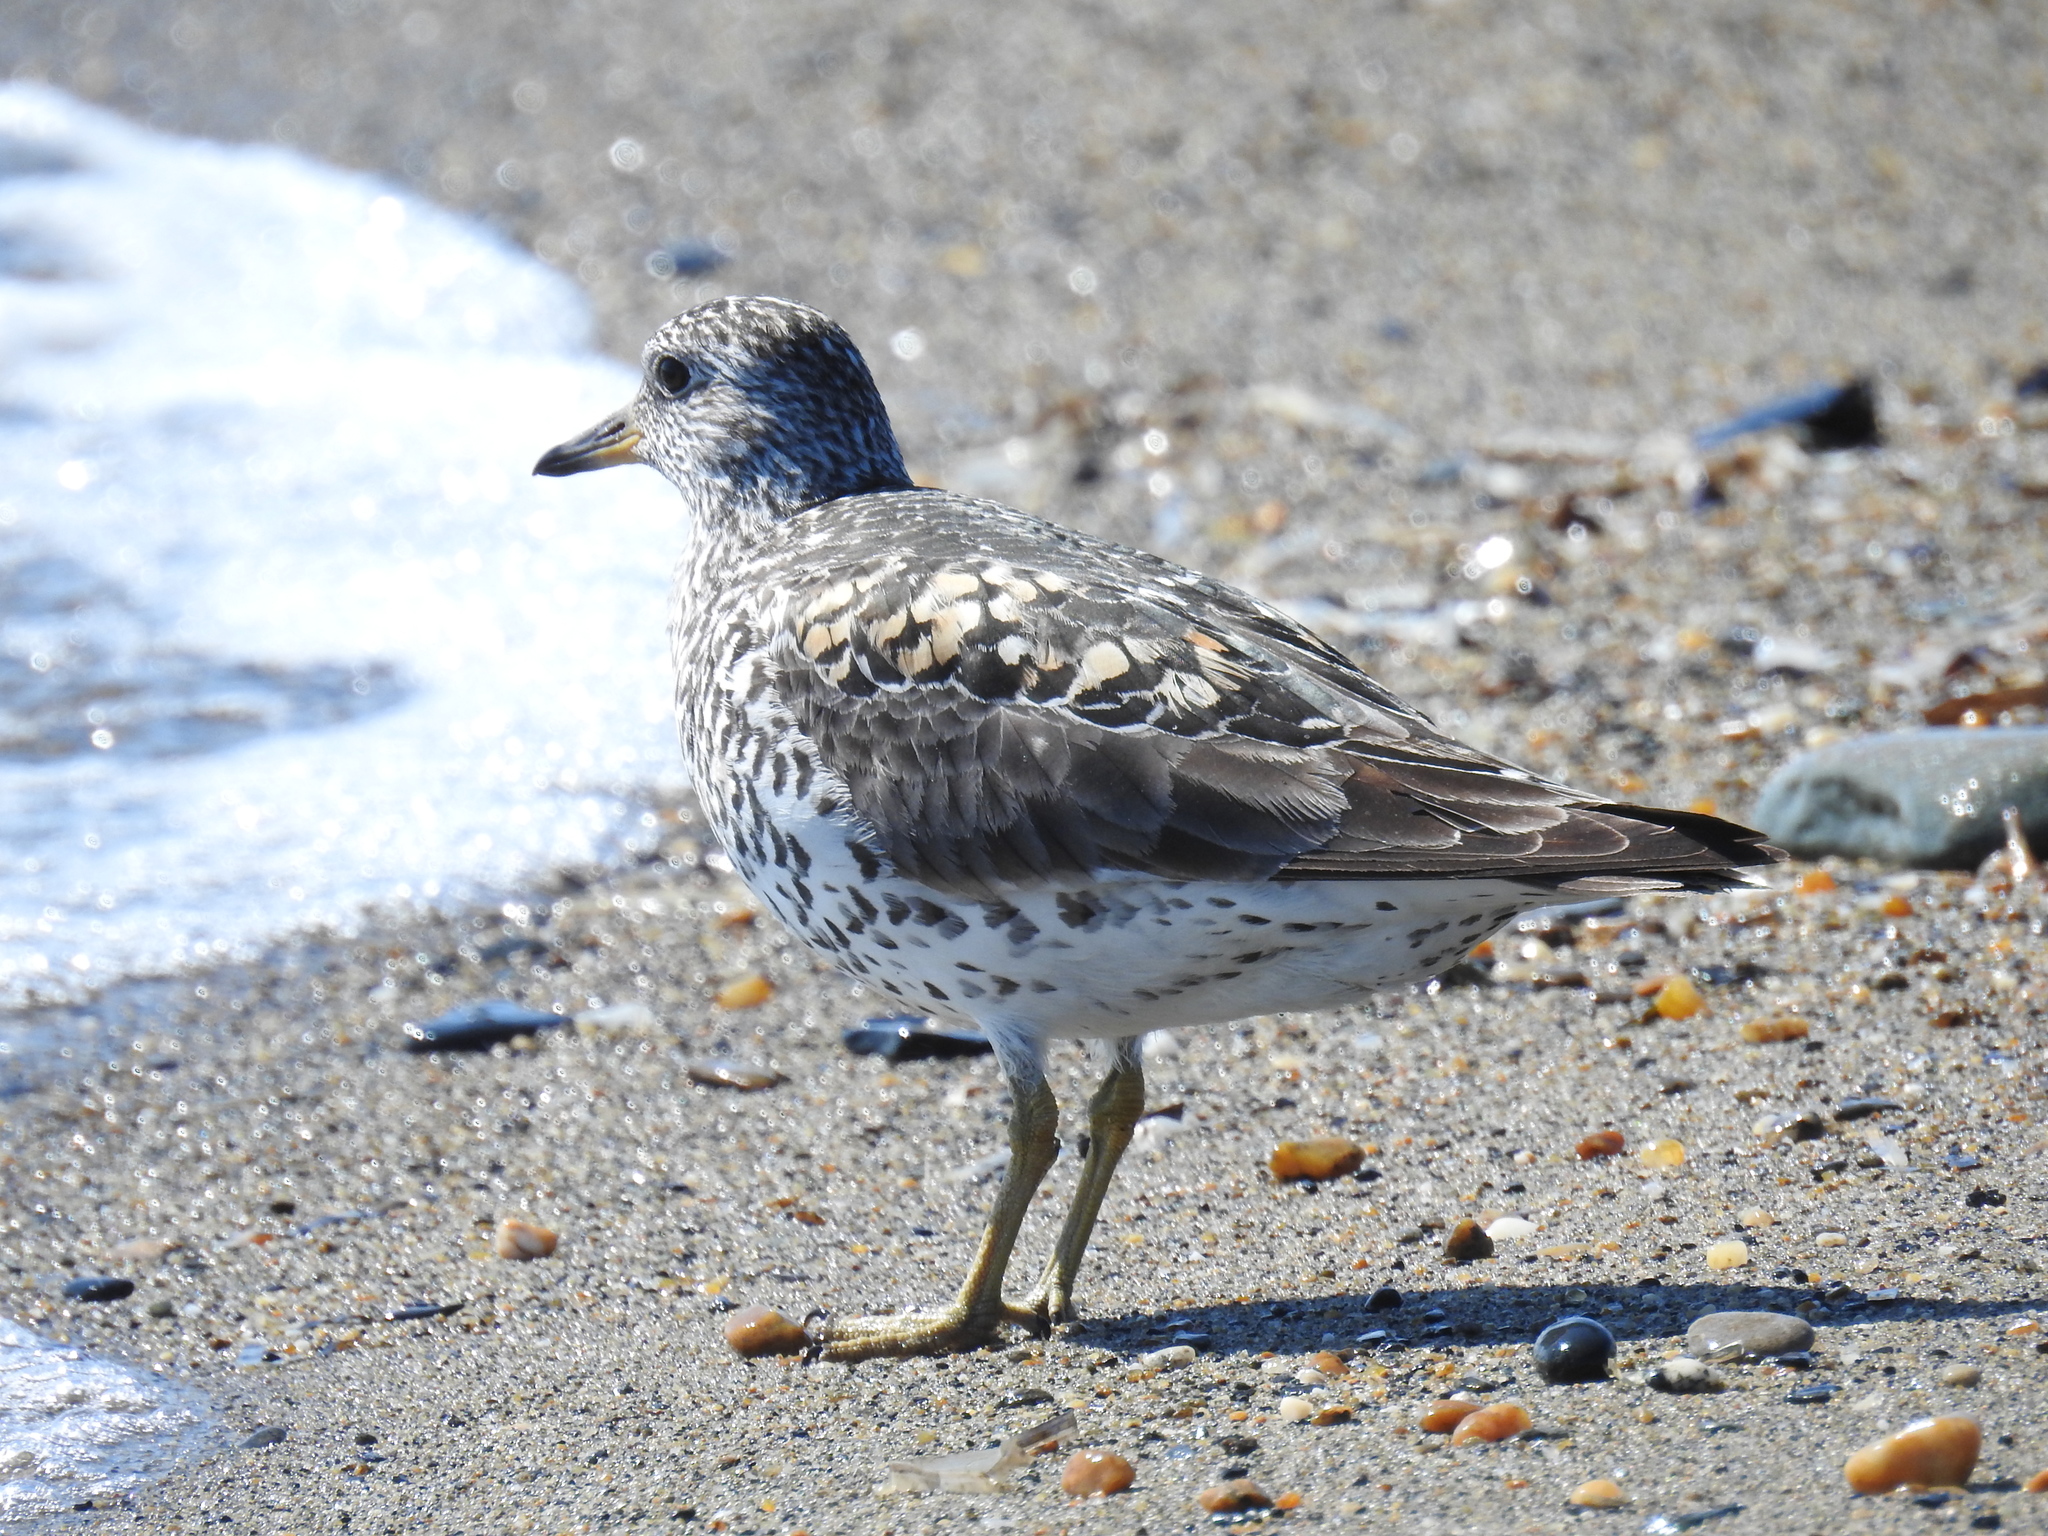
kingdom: Animalia
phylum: Chordata
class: Aves
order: Charadriiformes
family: Scolopacidae
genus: Calidris
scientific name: Calidris virgata
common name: Surfbird
